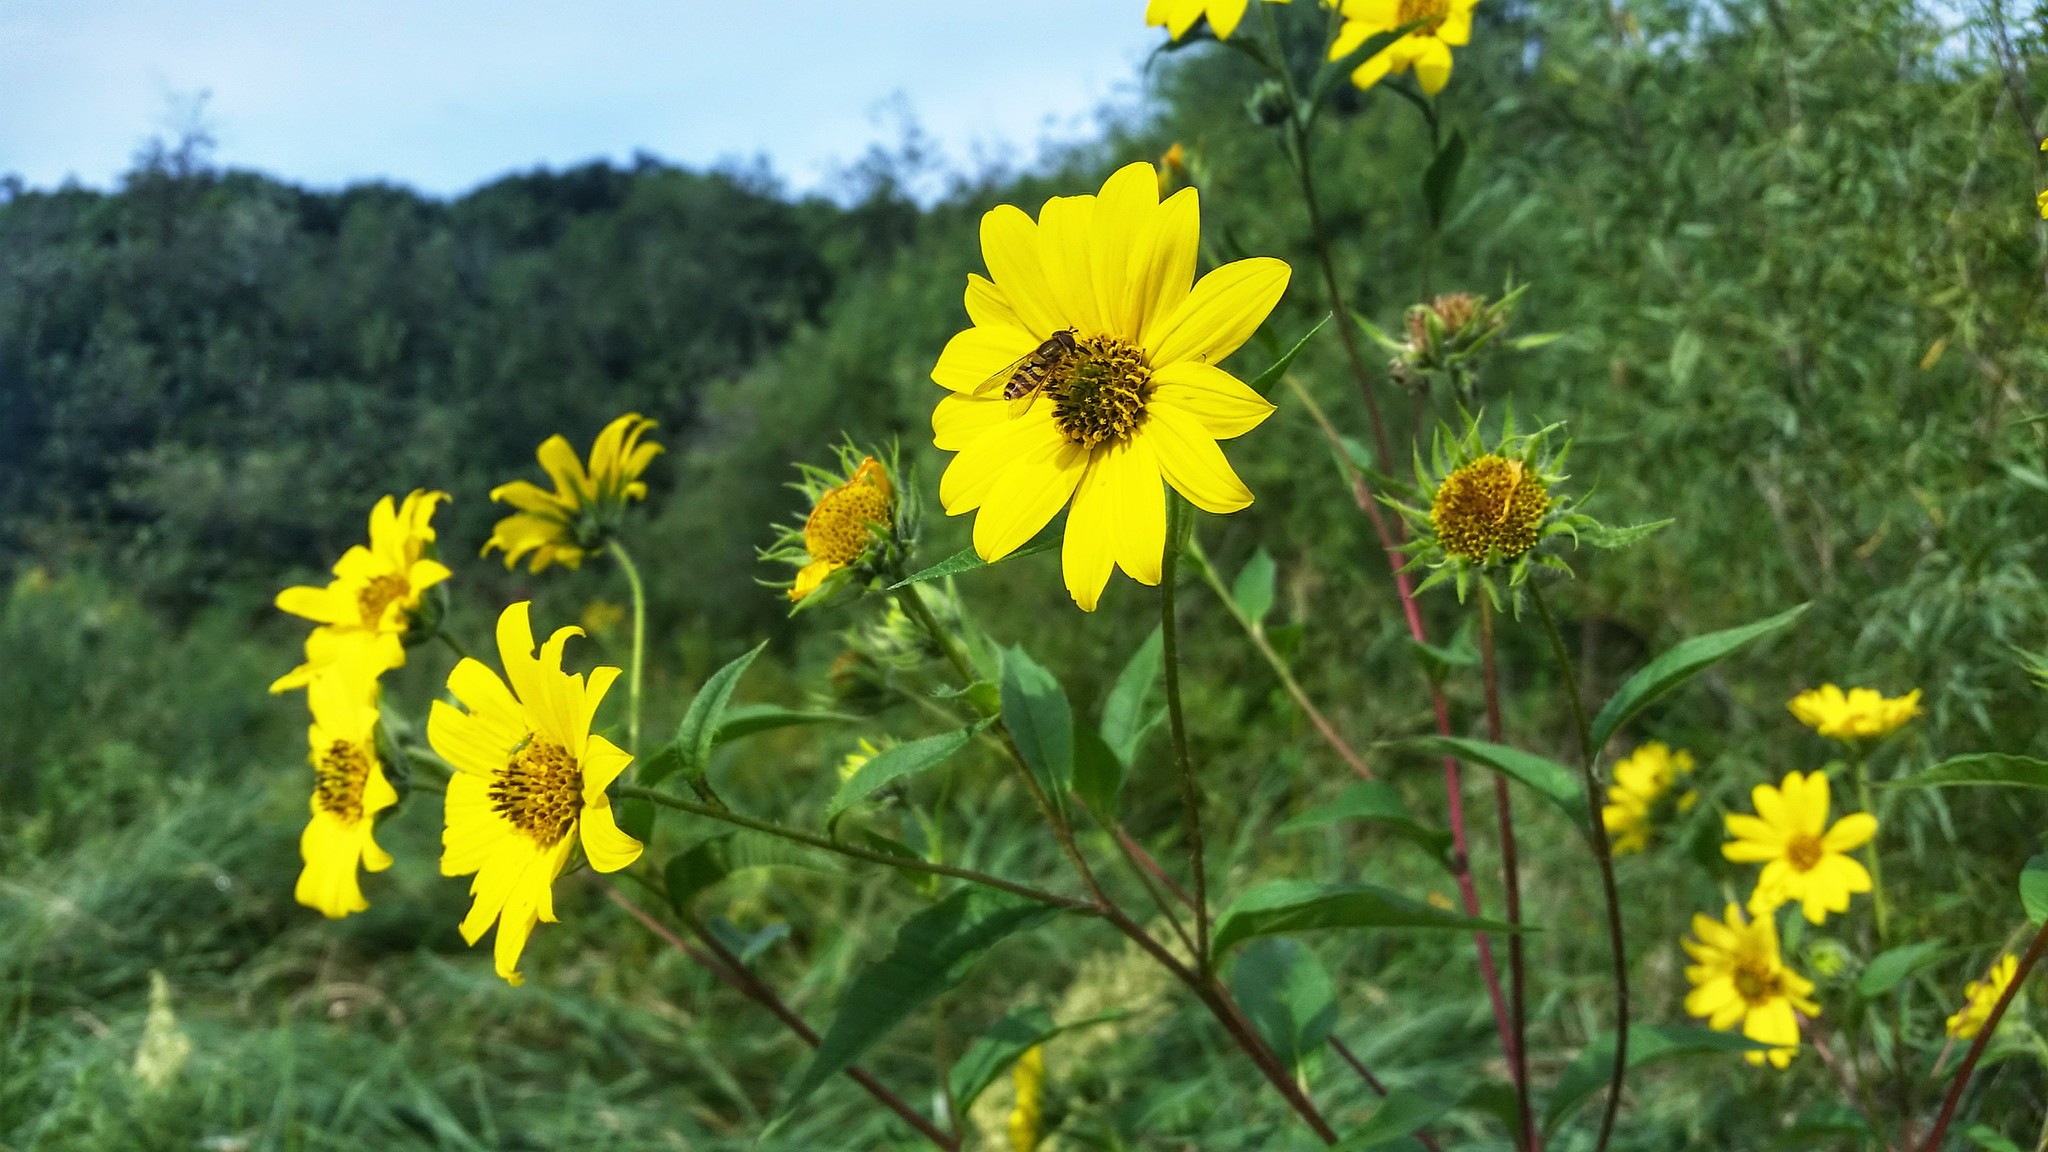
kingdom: Plantae
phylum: Tracheophyta
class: Magnoliopsida
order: Asterales
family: Asteraceae
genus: Helianthus
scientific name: Helianthus giganteus
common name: Giant sunflower
